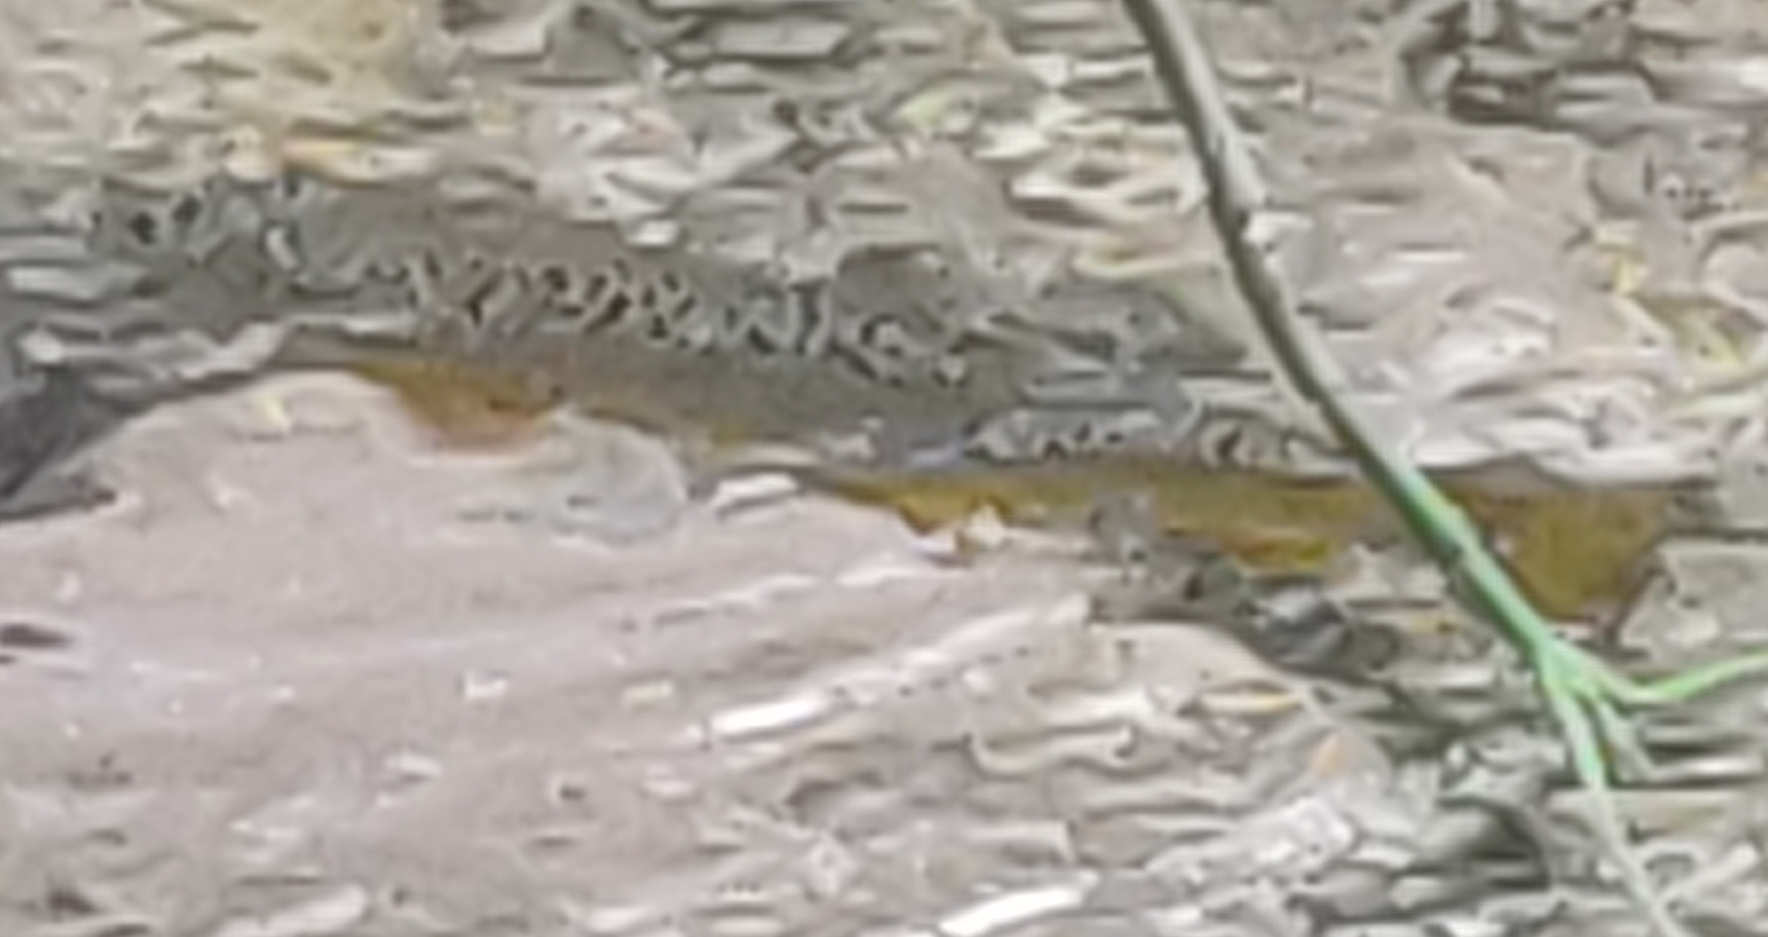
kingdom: Animalia
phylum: Chordata
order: Salmoniformes
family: Salmonidae
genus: Salmo
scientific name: Salmo trutta
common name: Brown trout
